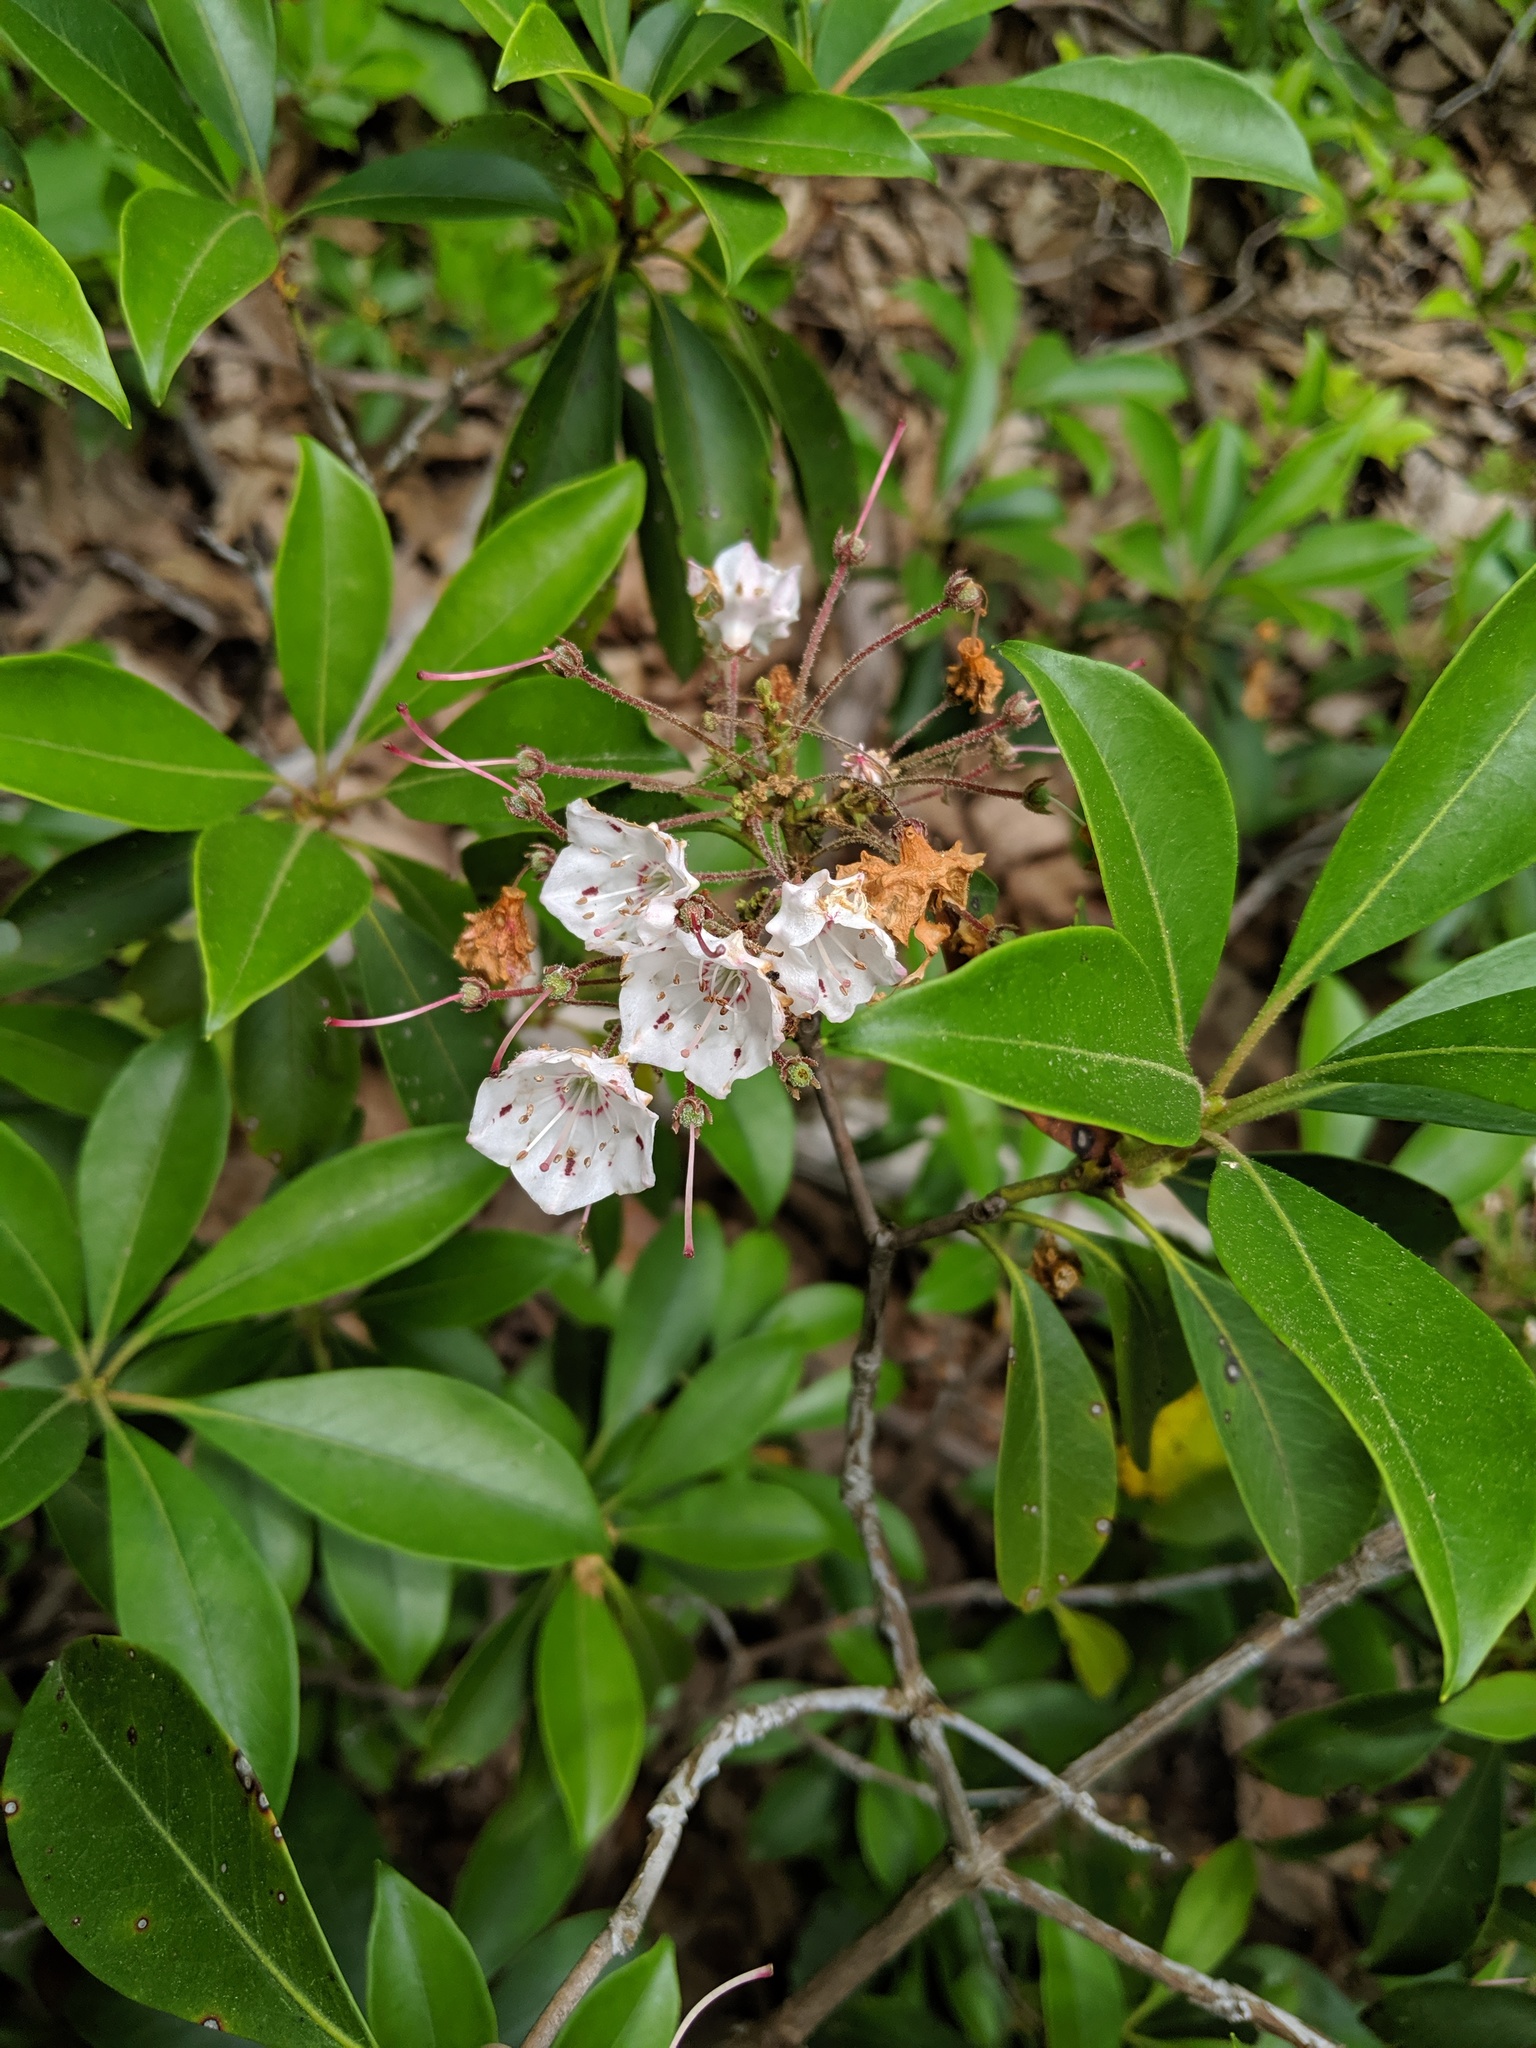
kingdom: Plantae
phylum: Tracheophyta
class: Magnoliopsida
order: Ericales
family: Ericaceae
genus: Kalmia
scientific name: Kalmia latifolia
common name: Mountain-laurel
